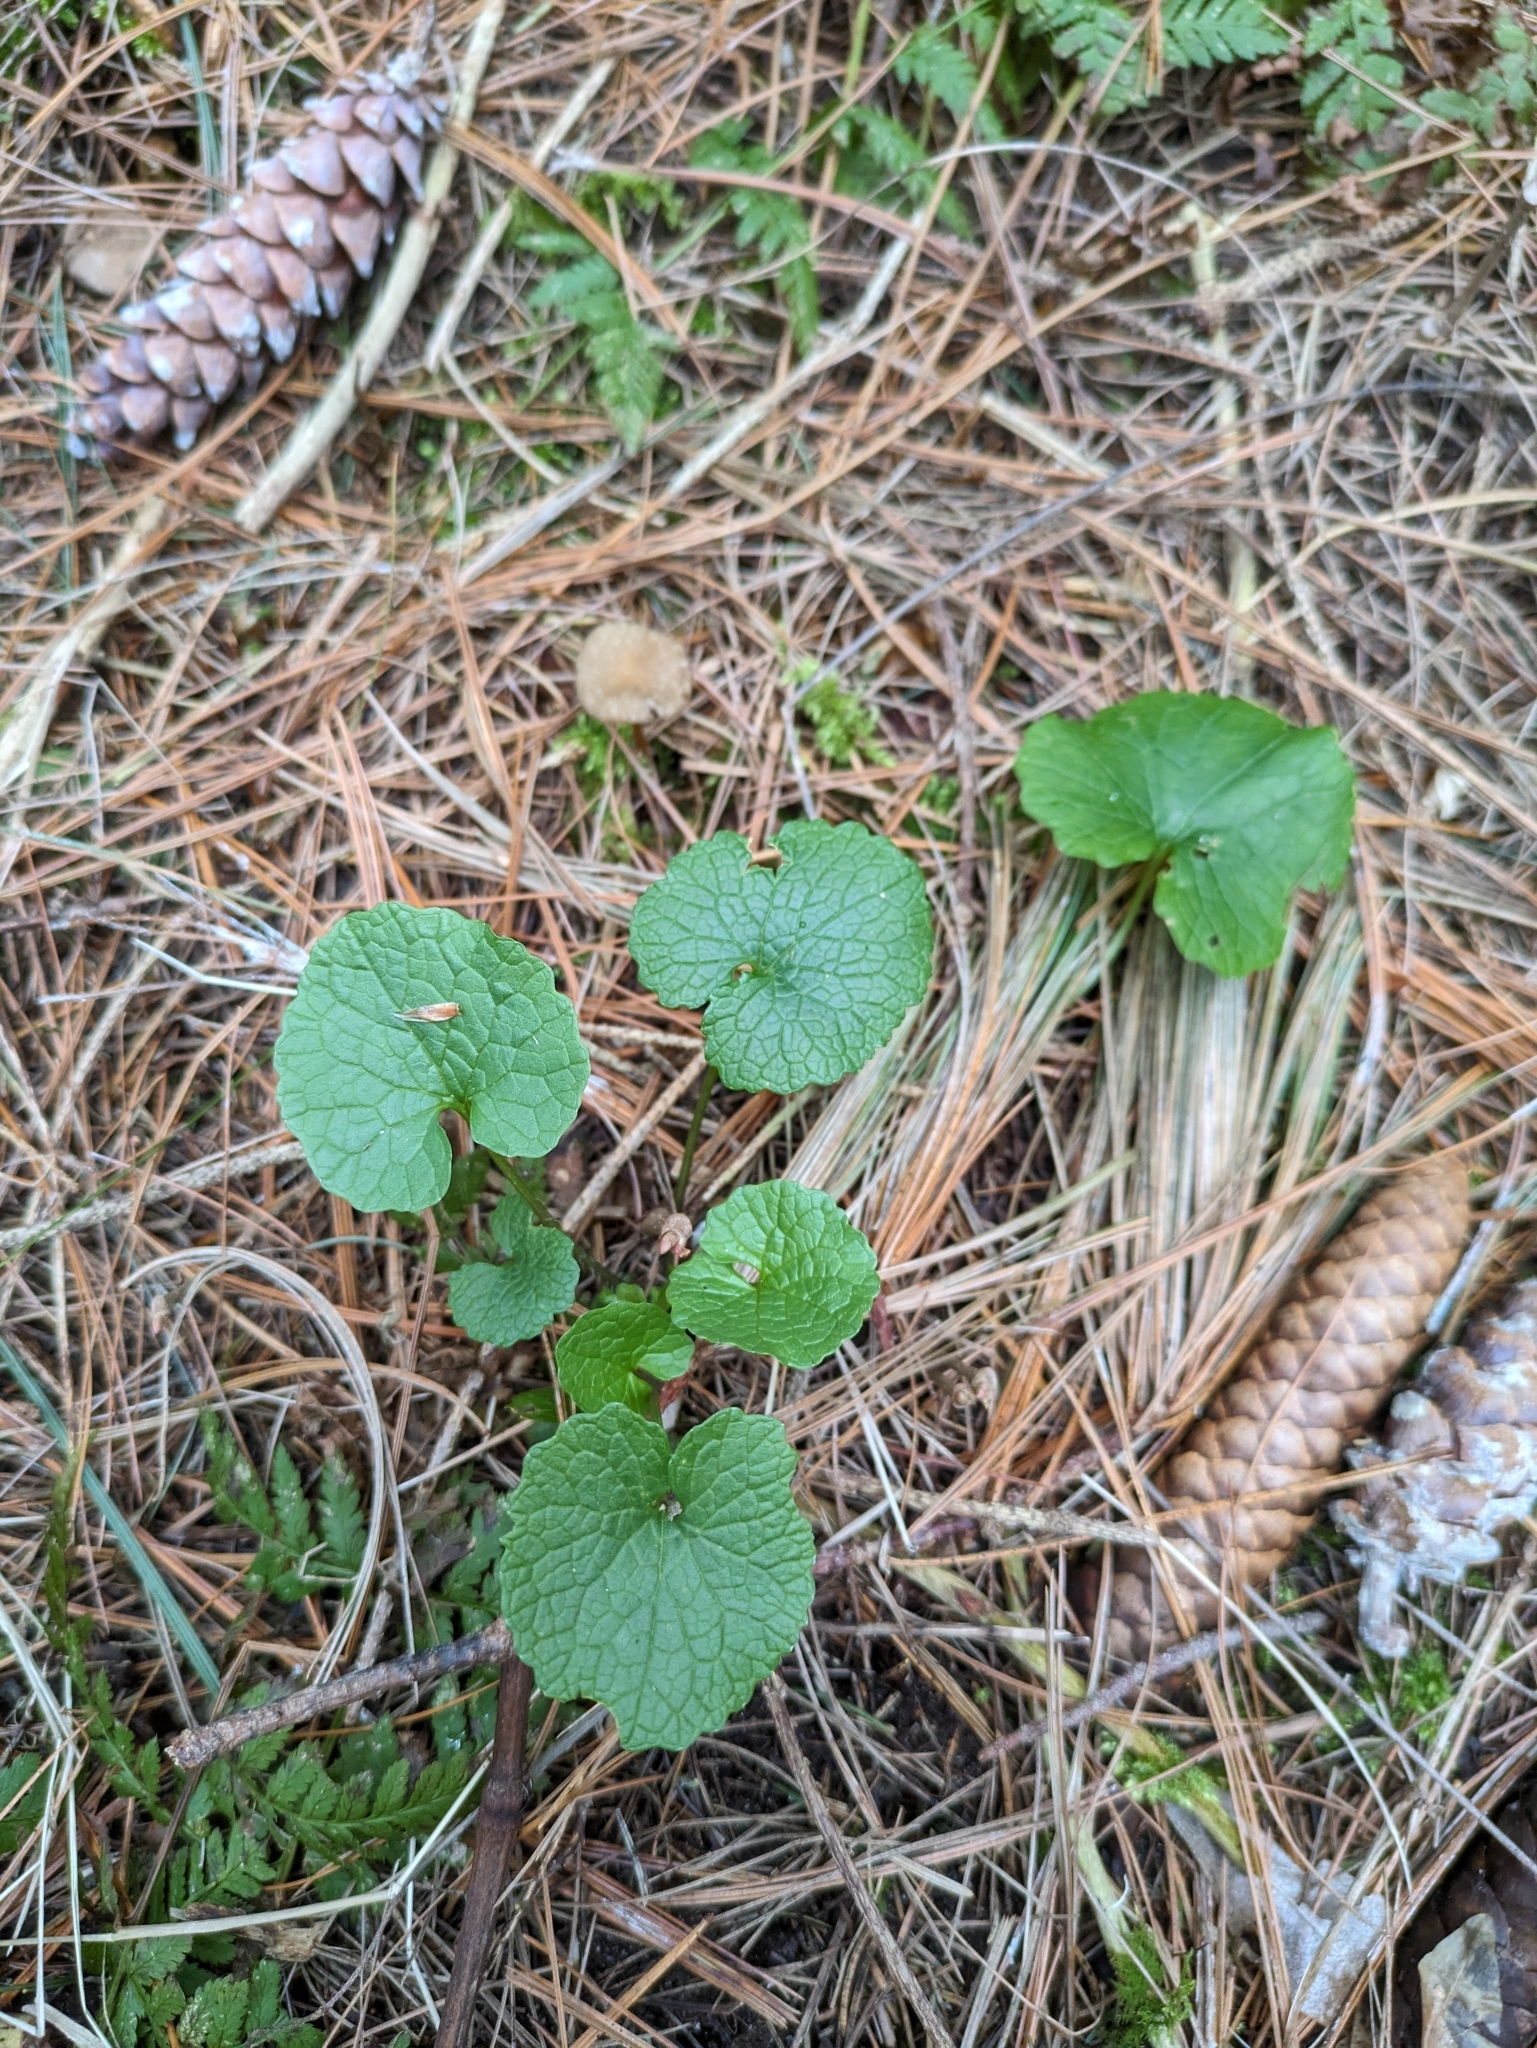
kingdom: Plantae
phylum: Tracheophyta
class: Magnoliopsida
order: Brassicales
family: Brassicaceae
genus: Alliaria
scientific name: Alliaria petiolata
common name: Garlic mustard
